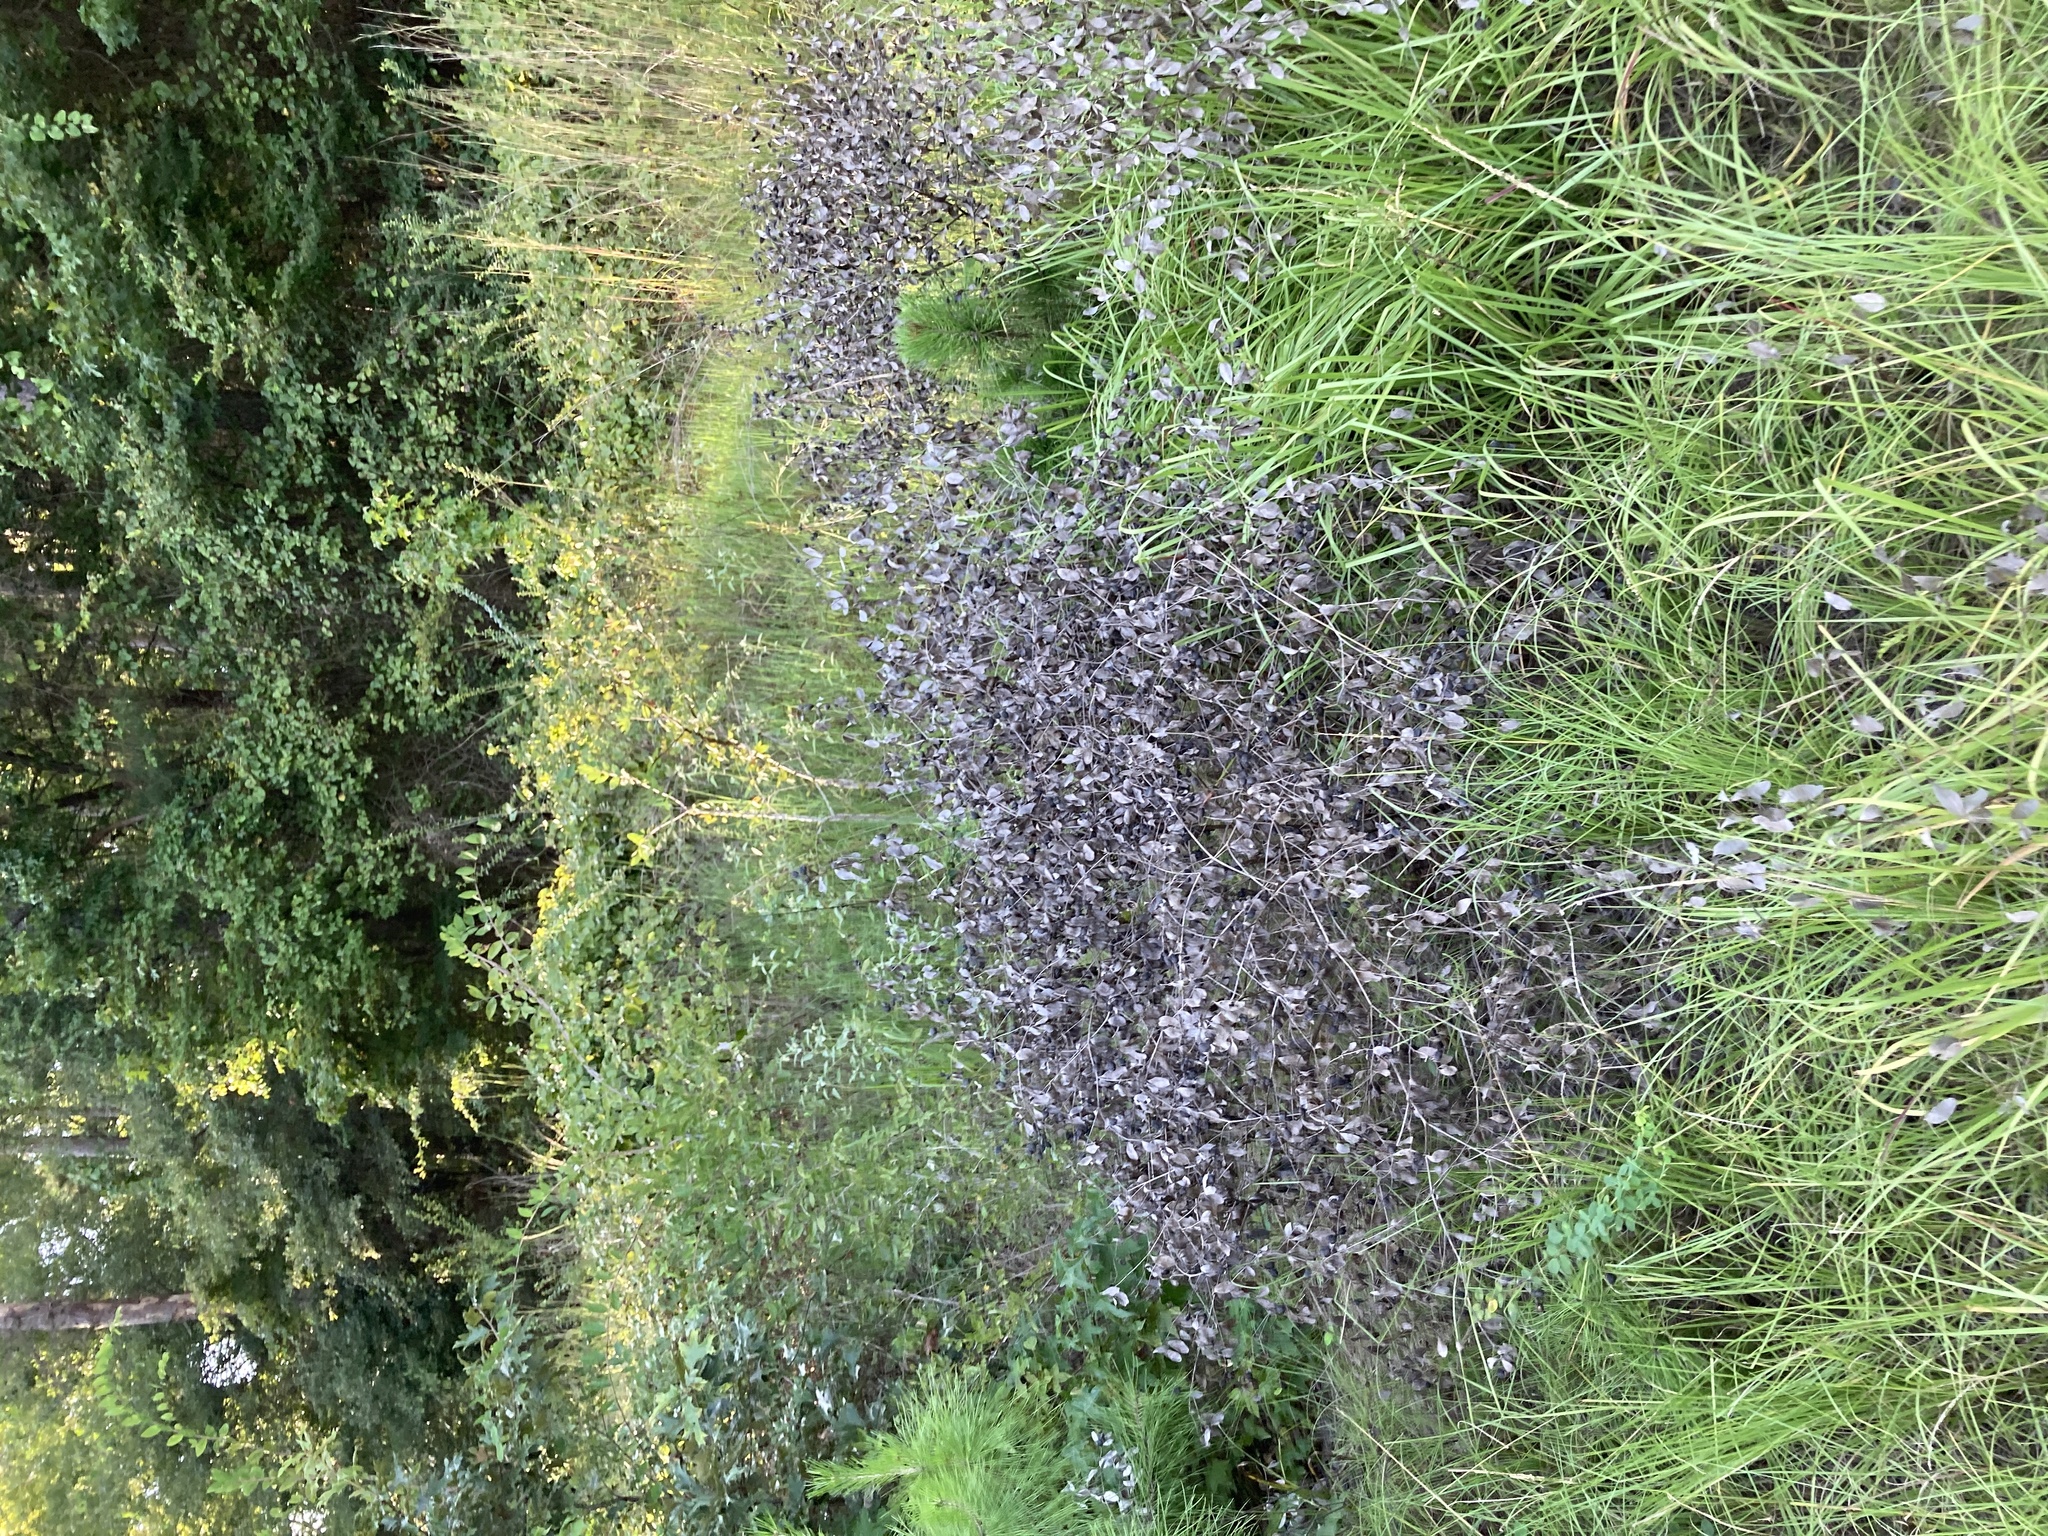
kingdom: Plantae
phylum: Tracheophyta
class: Magnoliopsida
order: Fabales
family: Fabaceae
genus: Baptisia
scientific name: Baptisia nuttalliana
